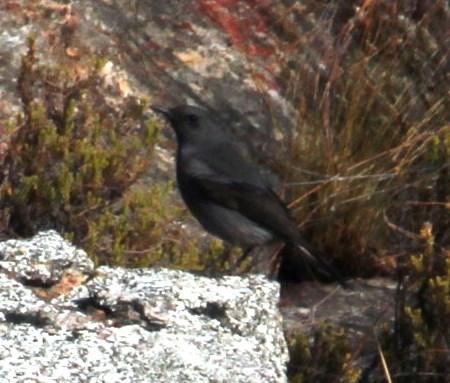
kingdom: Animalia
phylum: Chordata
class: Aves
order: Passeriformes
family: Muscicapidae
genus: Oenanthe
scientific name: Oenanthe monticola
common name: Mountain wheatear
